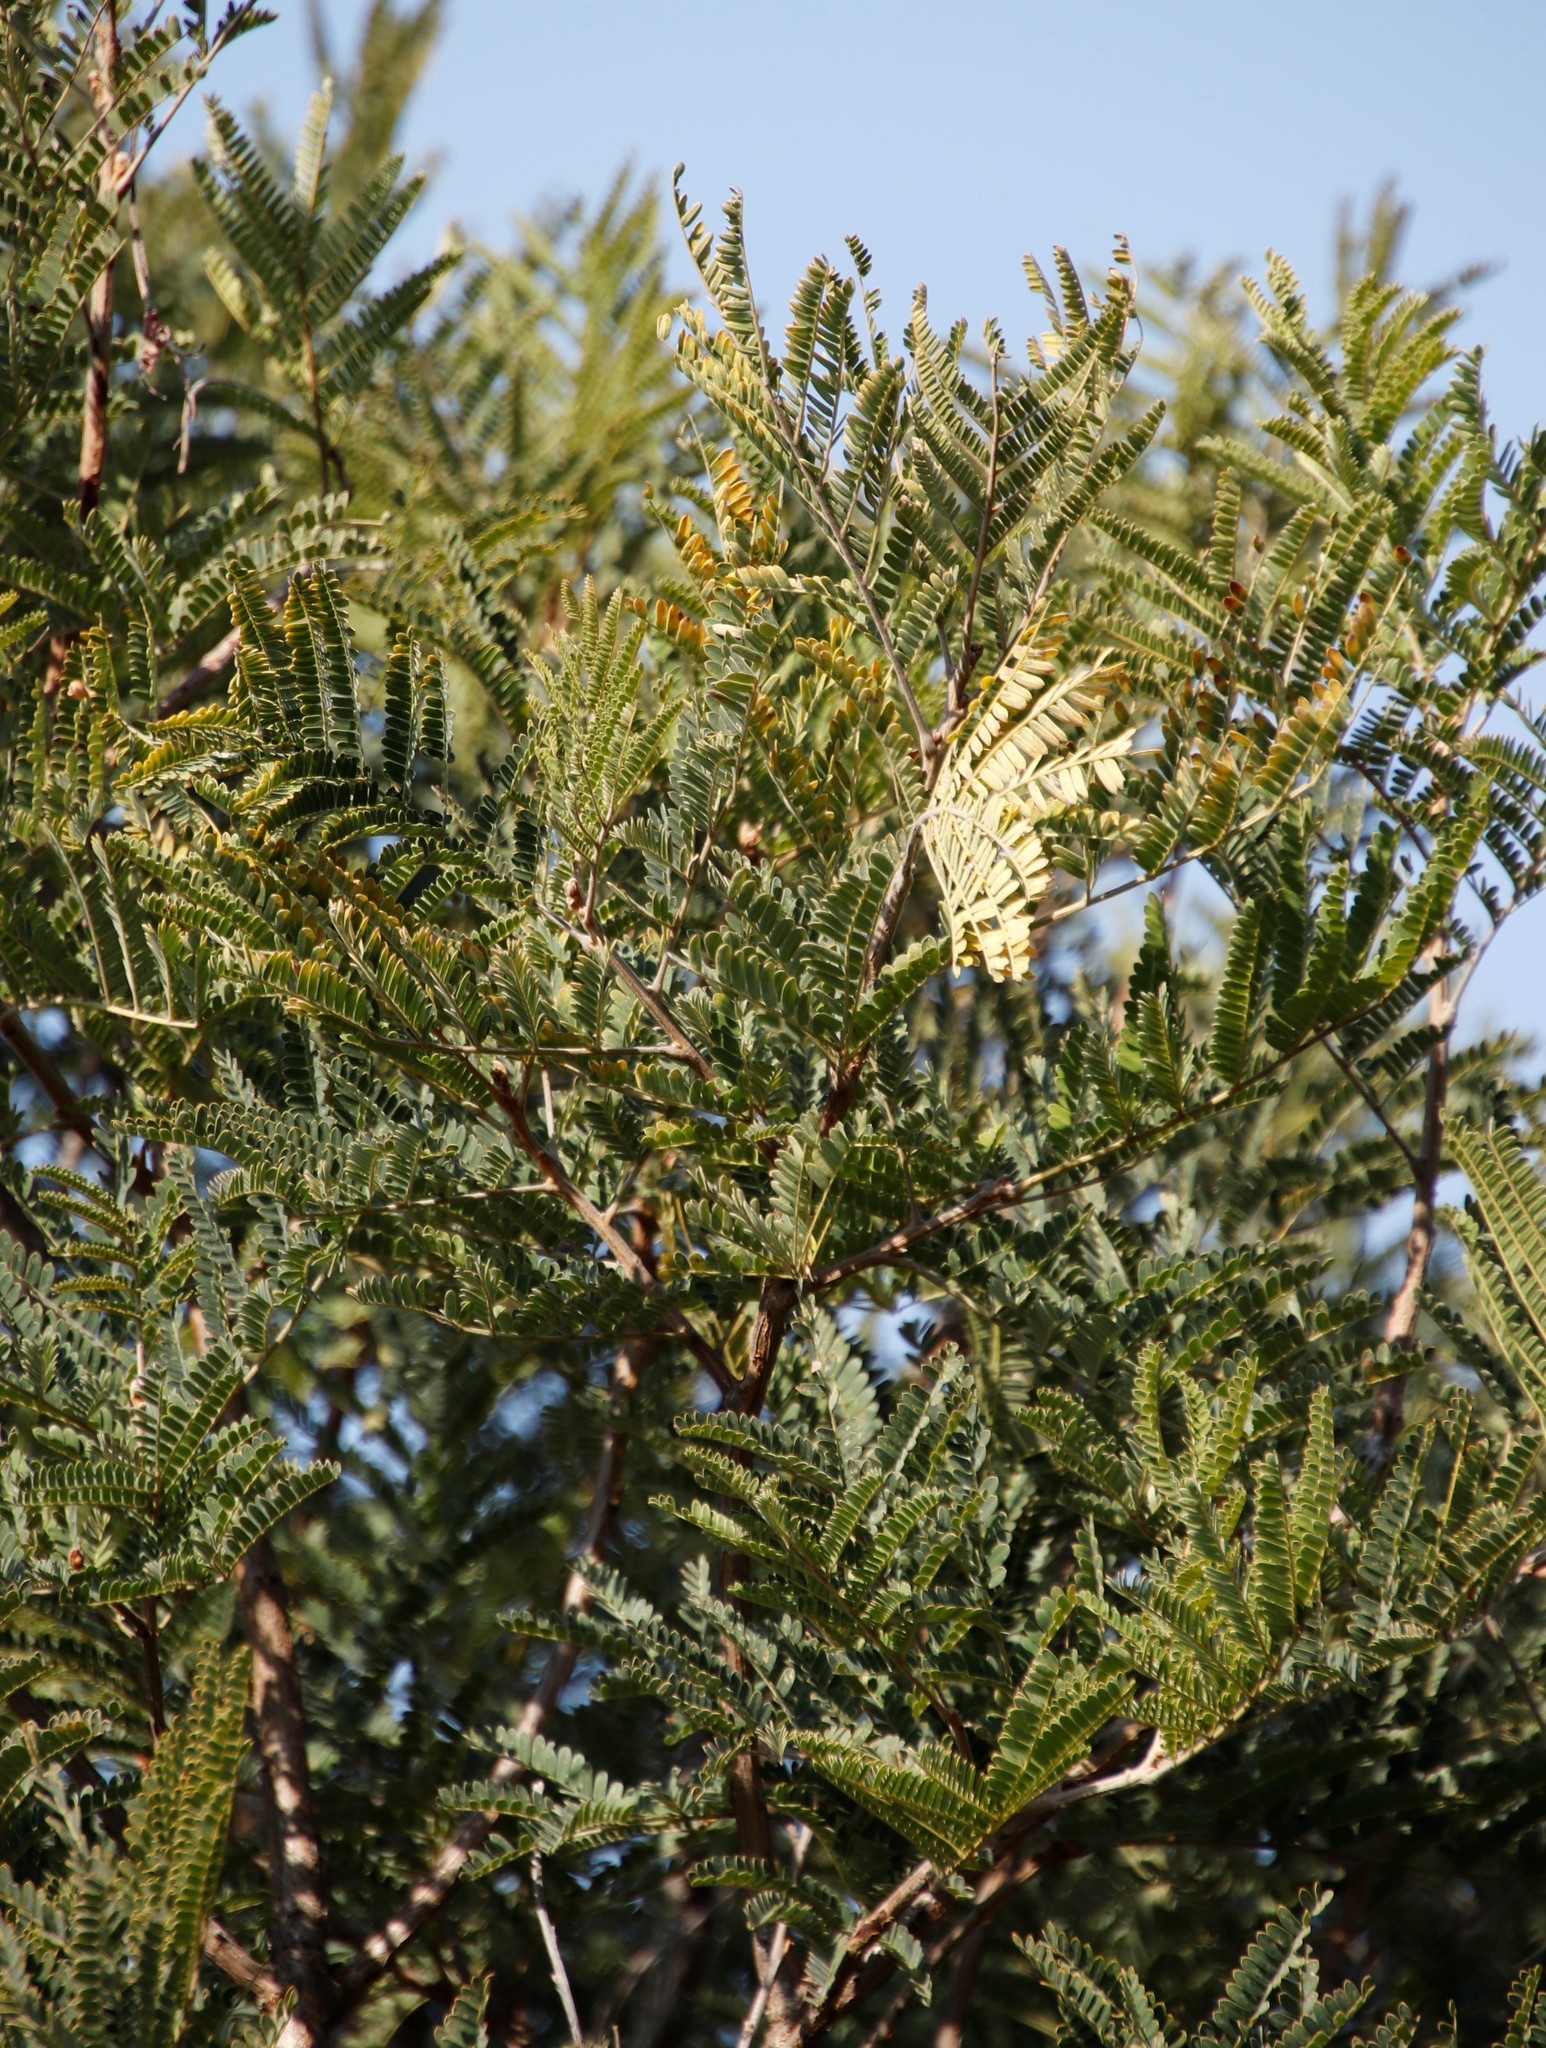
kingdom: Plantae
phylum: Tracheophyta
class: Magnoliopsida
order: Fabales
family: Fabaceae
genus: Peltophorum
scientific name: Peltophorum africanum
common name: African black wattle
